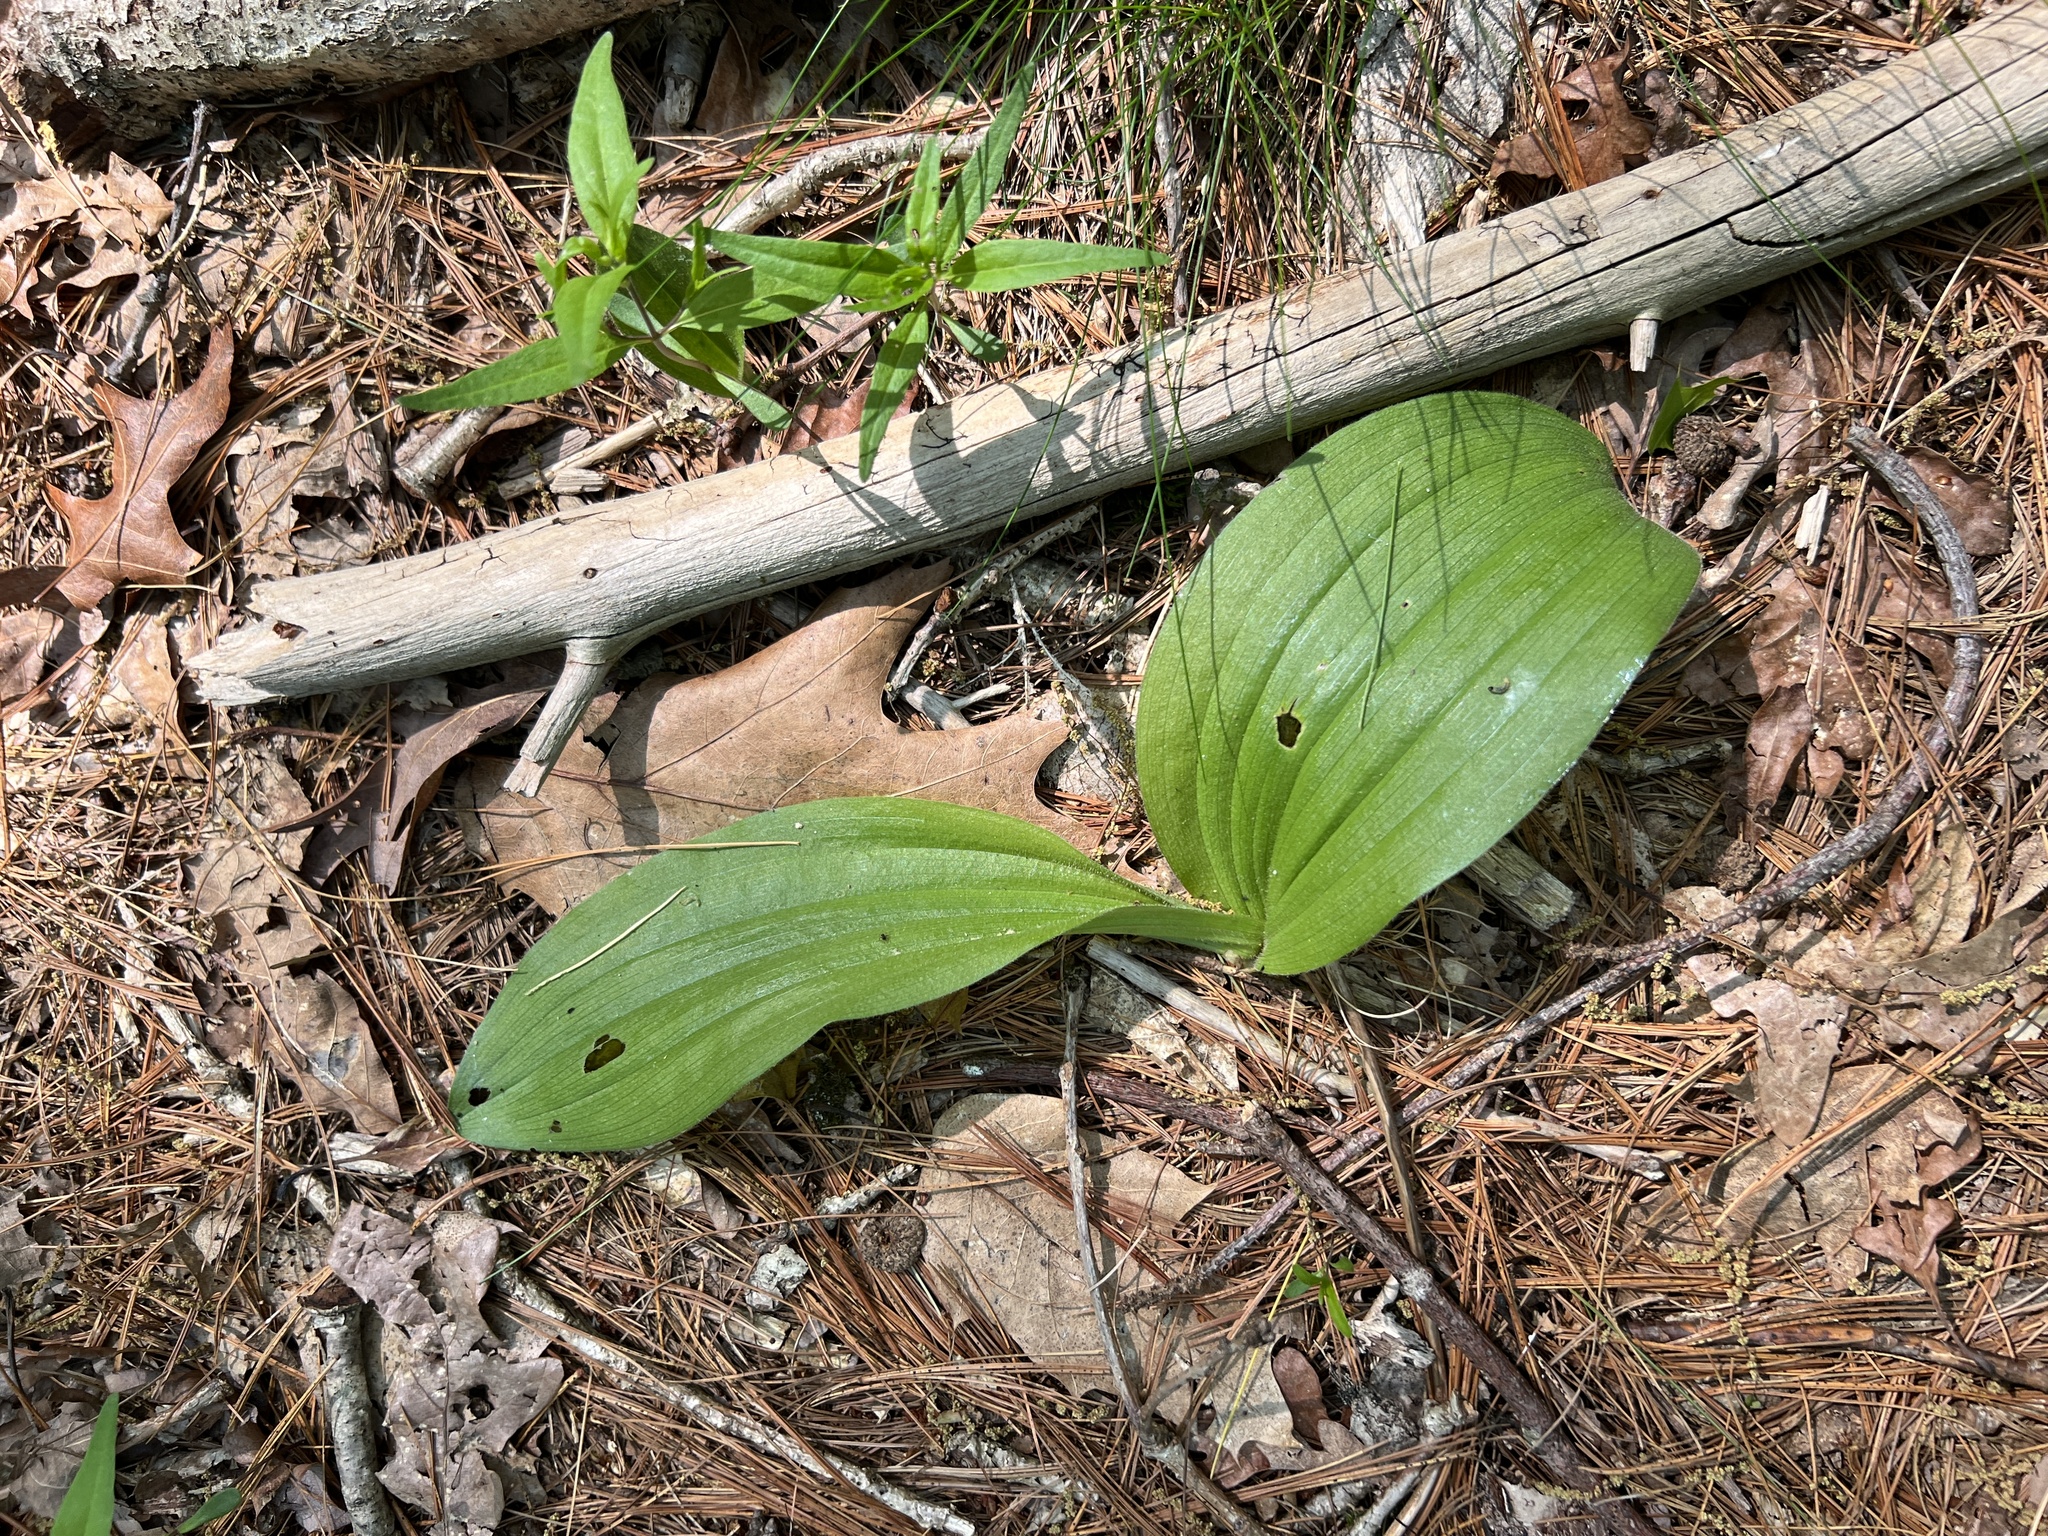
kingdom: Plantae
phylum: Tracheophyta
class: Liliopsida
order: Asparagales
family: Orchidaceae
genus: Cypripedium
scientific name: Cypripedium acaule
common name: Pink lady's-slipper
